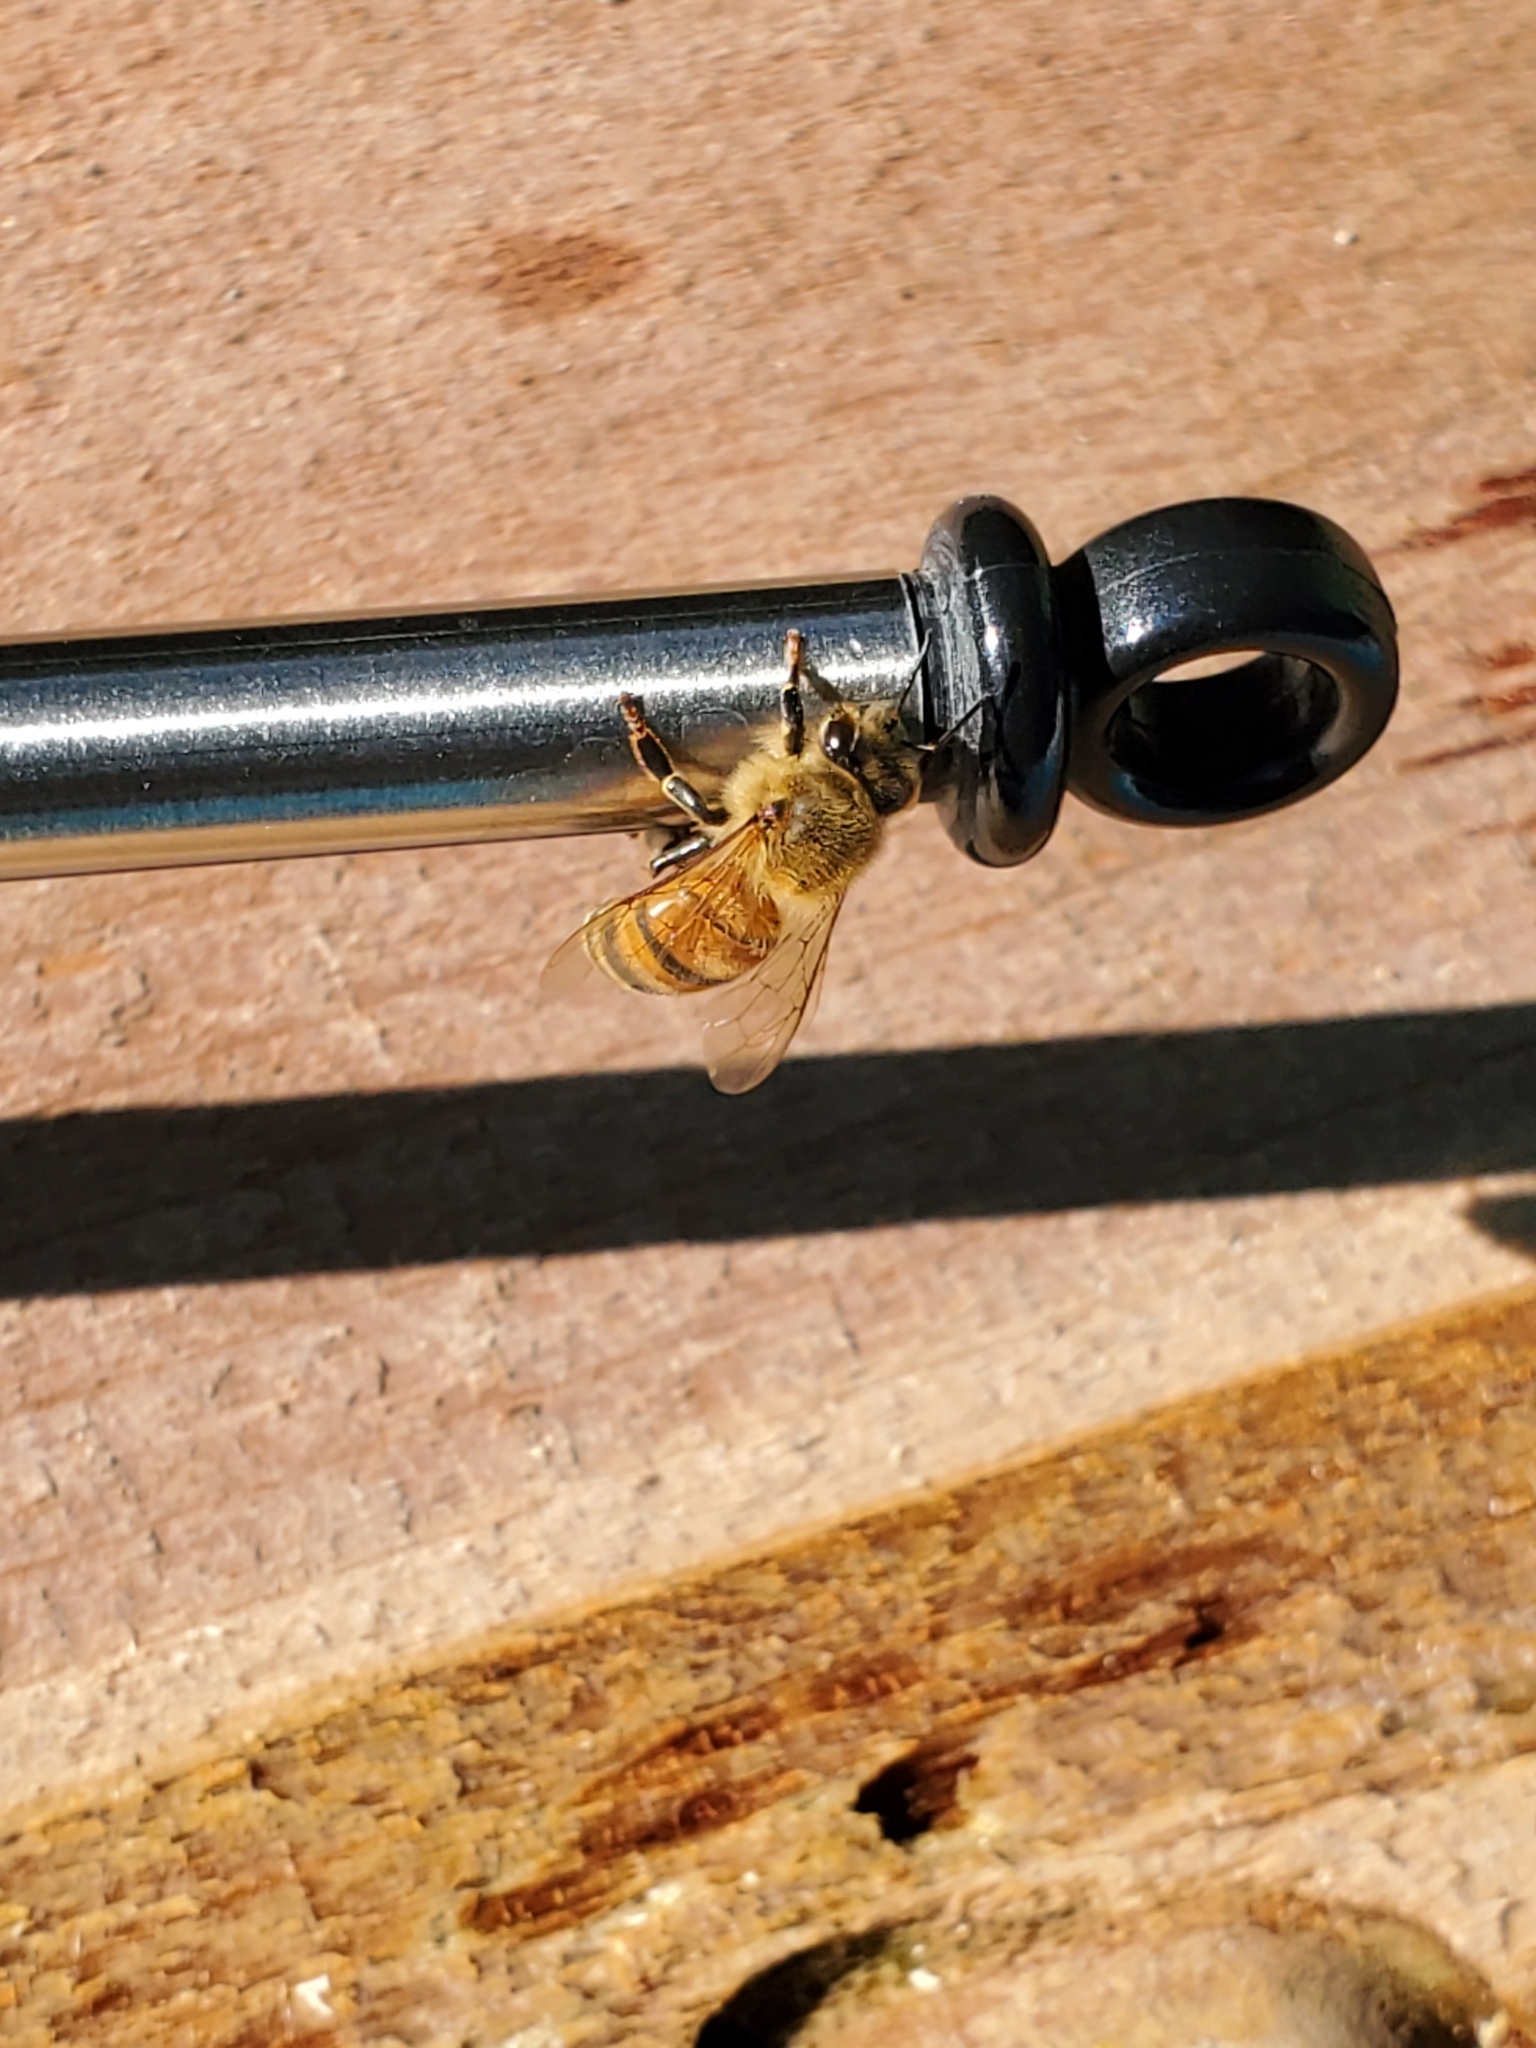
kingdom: Animalia
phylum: Arthropoda
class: Insecta
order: Hymenoptera
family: Apidae
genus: Apis
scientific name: Apis mellifera
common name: Honey bee
